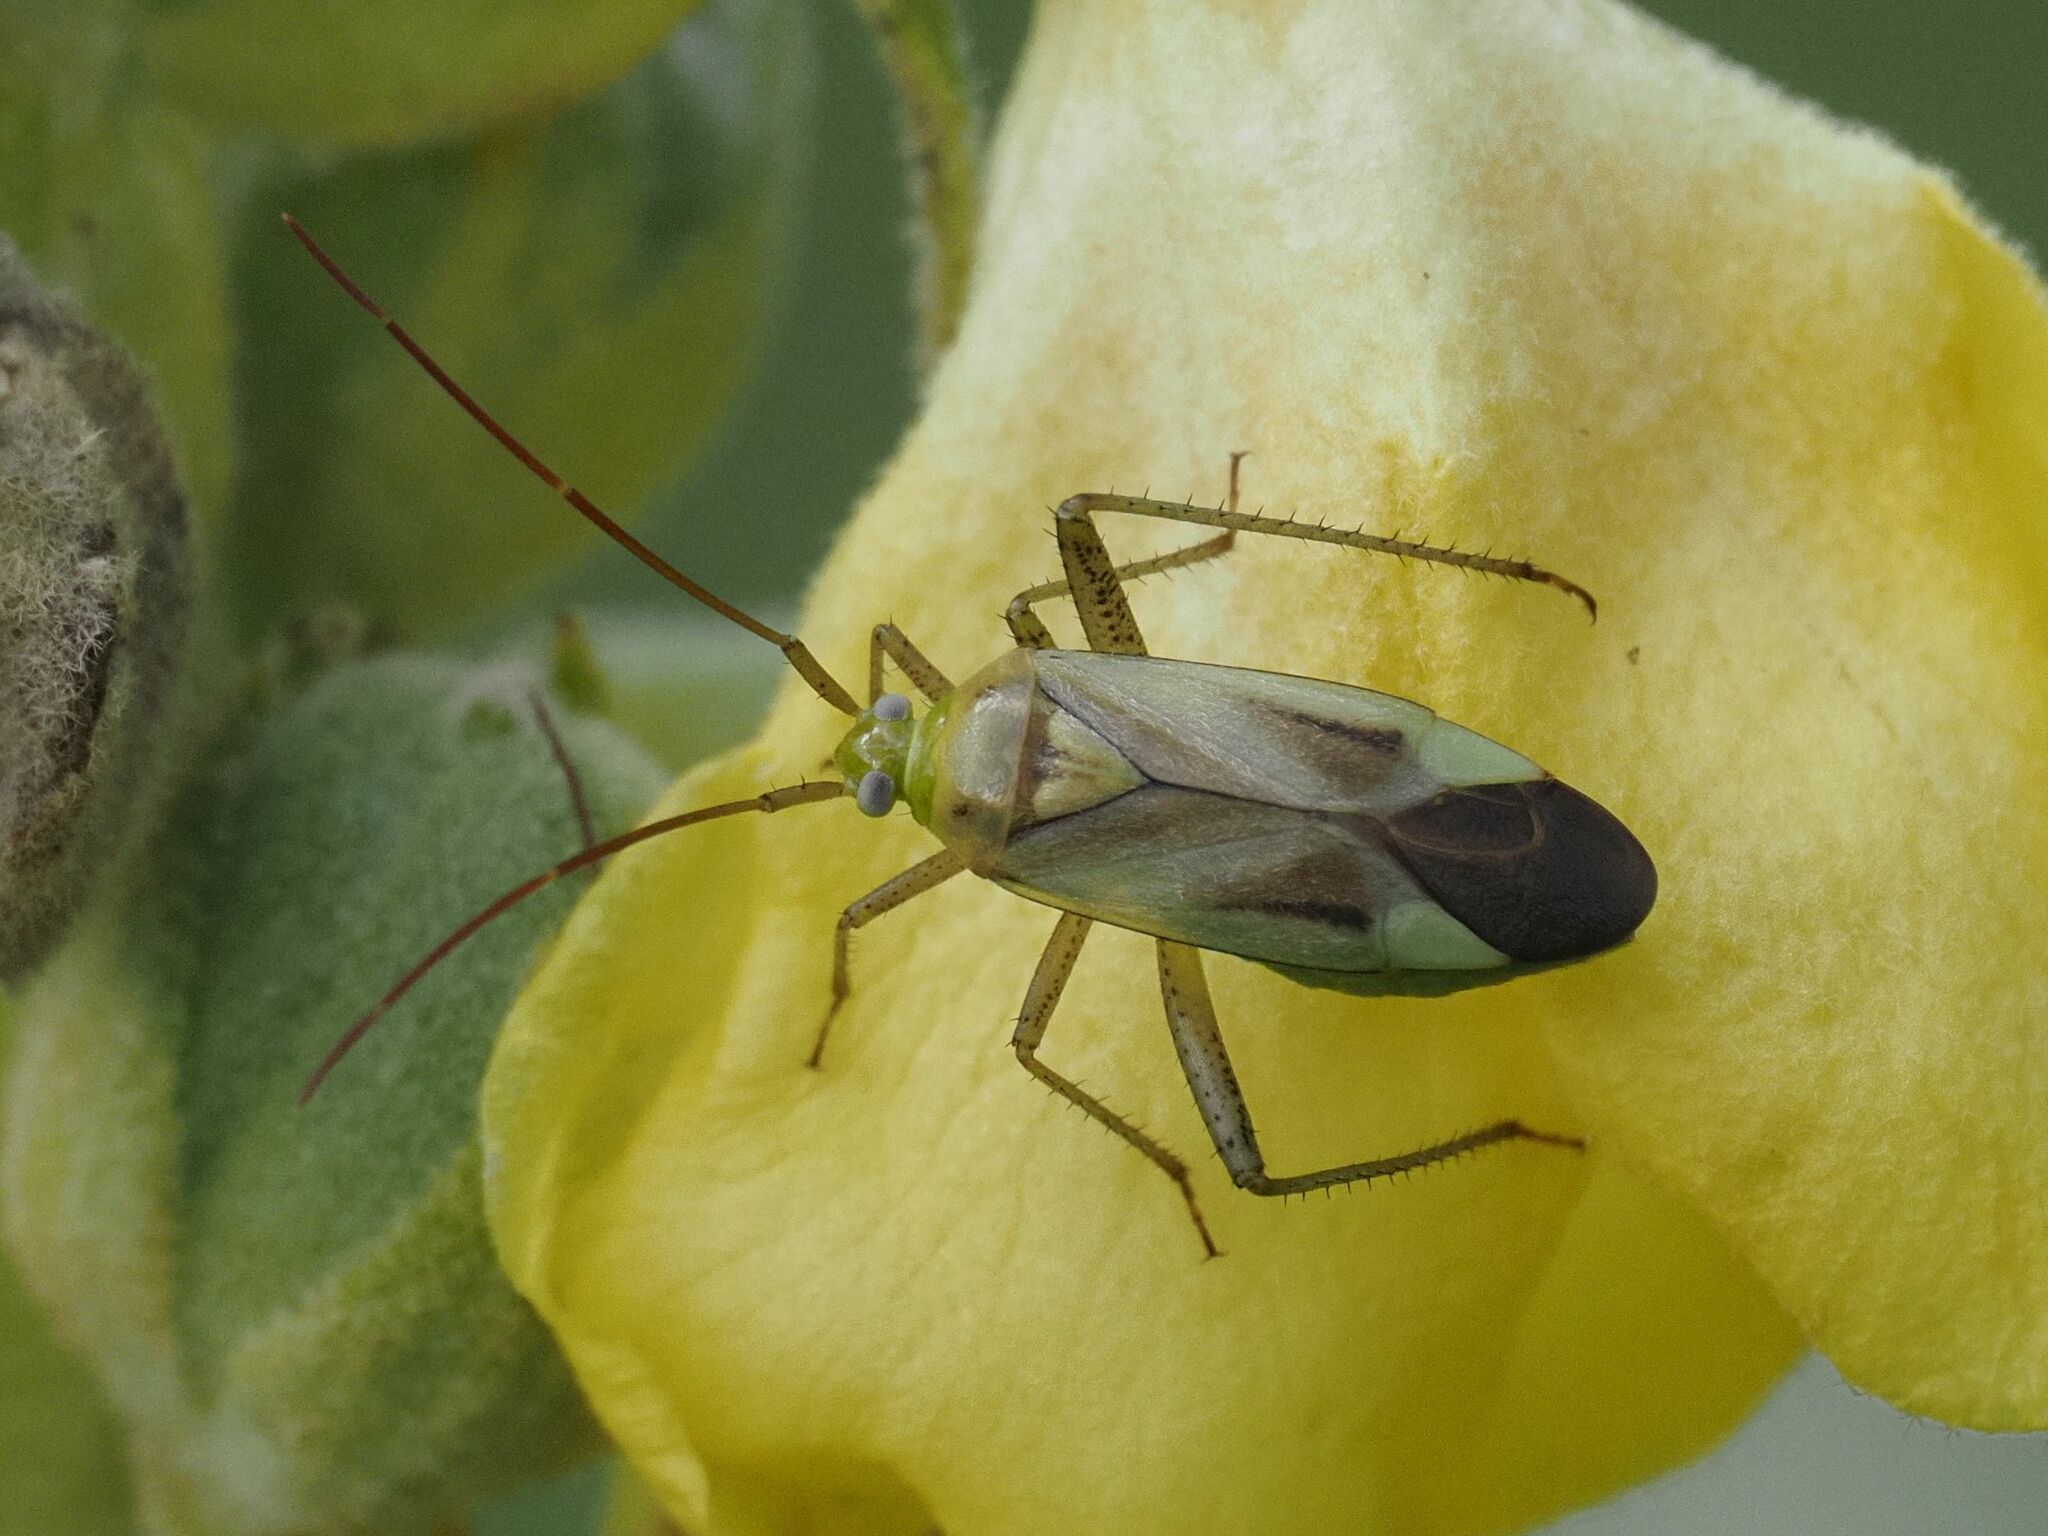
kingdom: Animalia
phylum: Arthropoda
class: Insecta
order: Hemiptera
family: Miridae
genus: Adelphocoris
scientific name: Adelphocoris lineolatus
